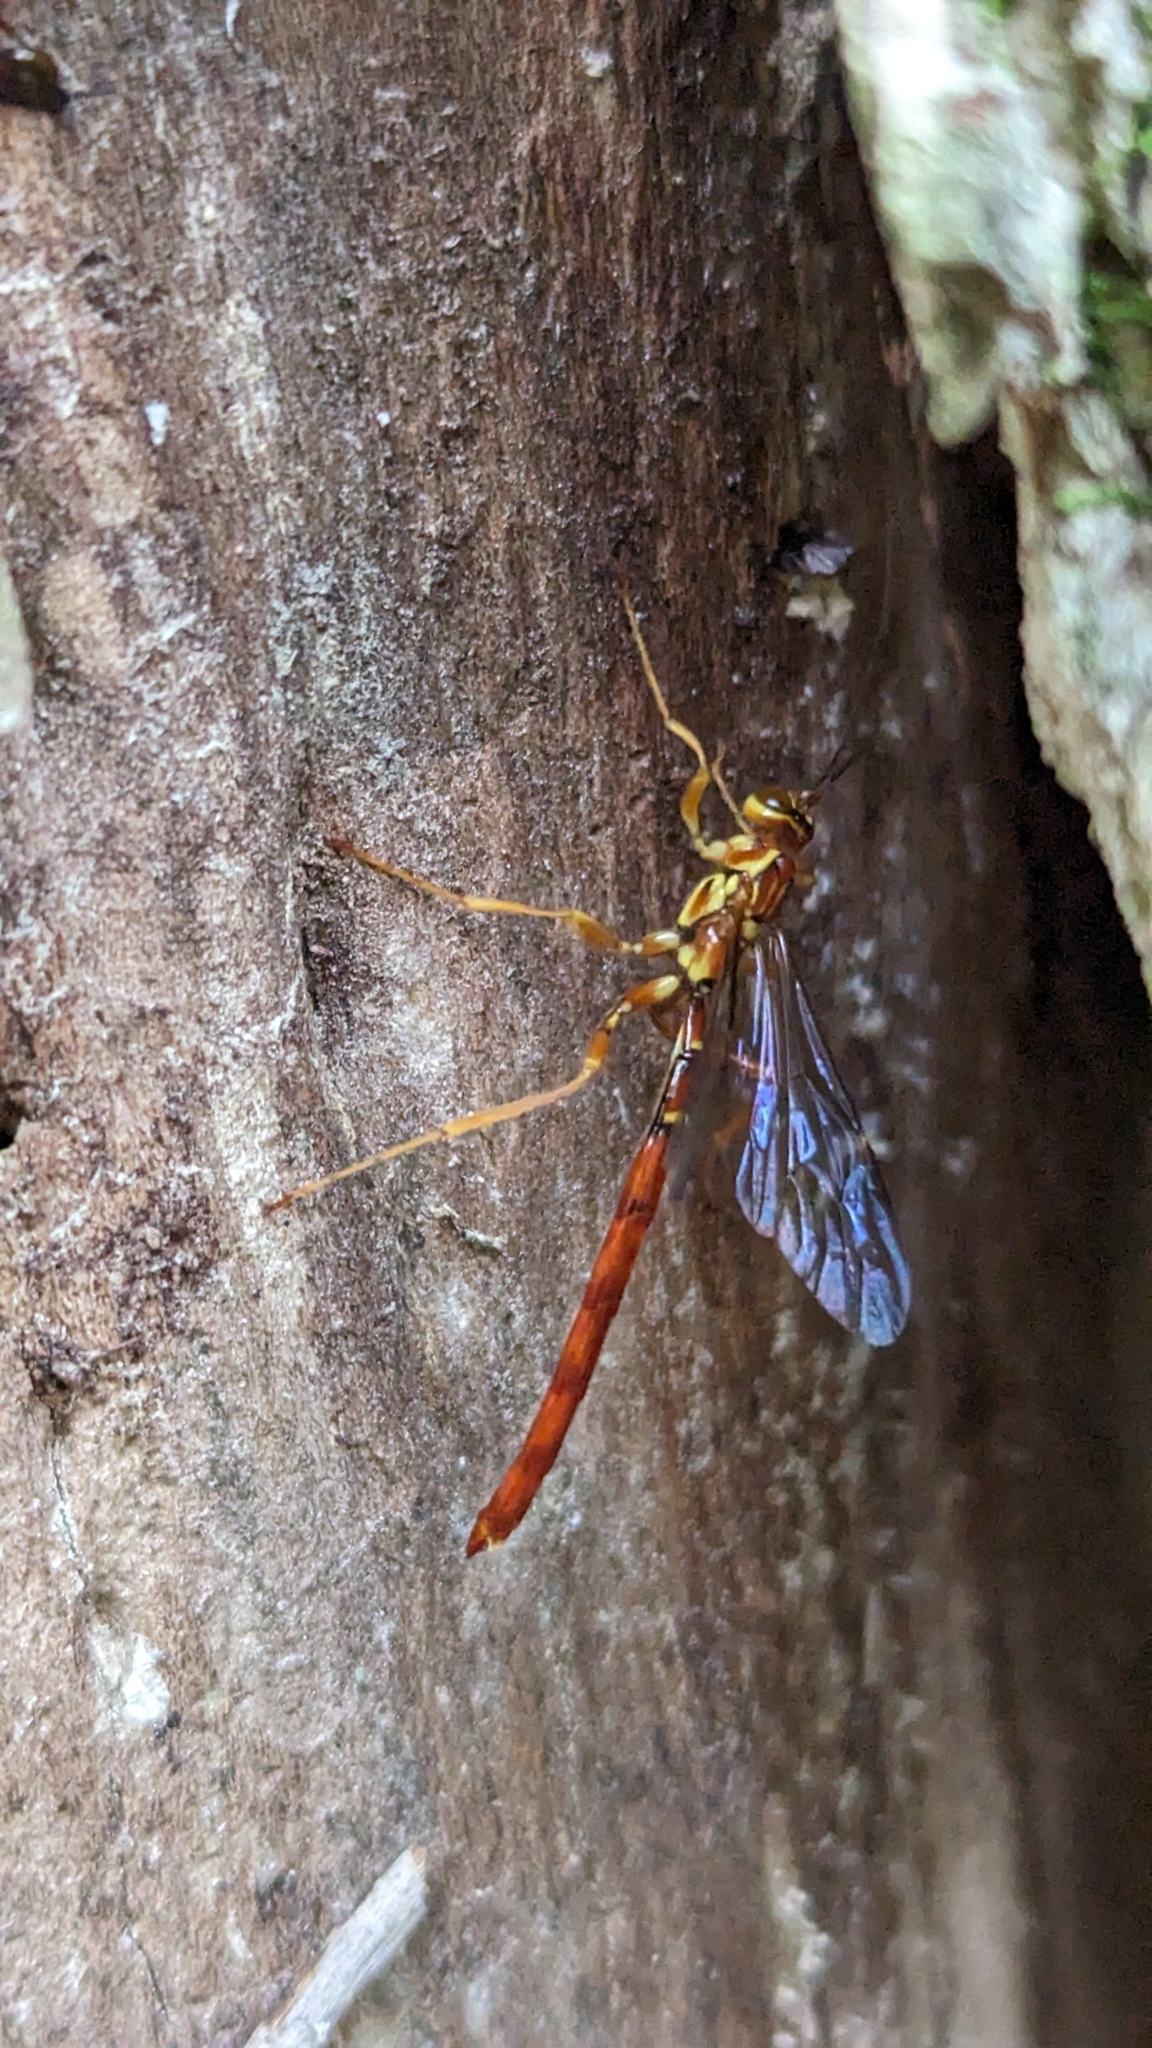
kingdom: Animalia
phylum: Arthropoda
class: Insecta
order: Hymenoptera
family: Ichneumonidae
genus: Megarhyssa
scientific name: Megarhyssa greenei
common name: Greene's giant ichneumonid wasp
